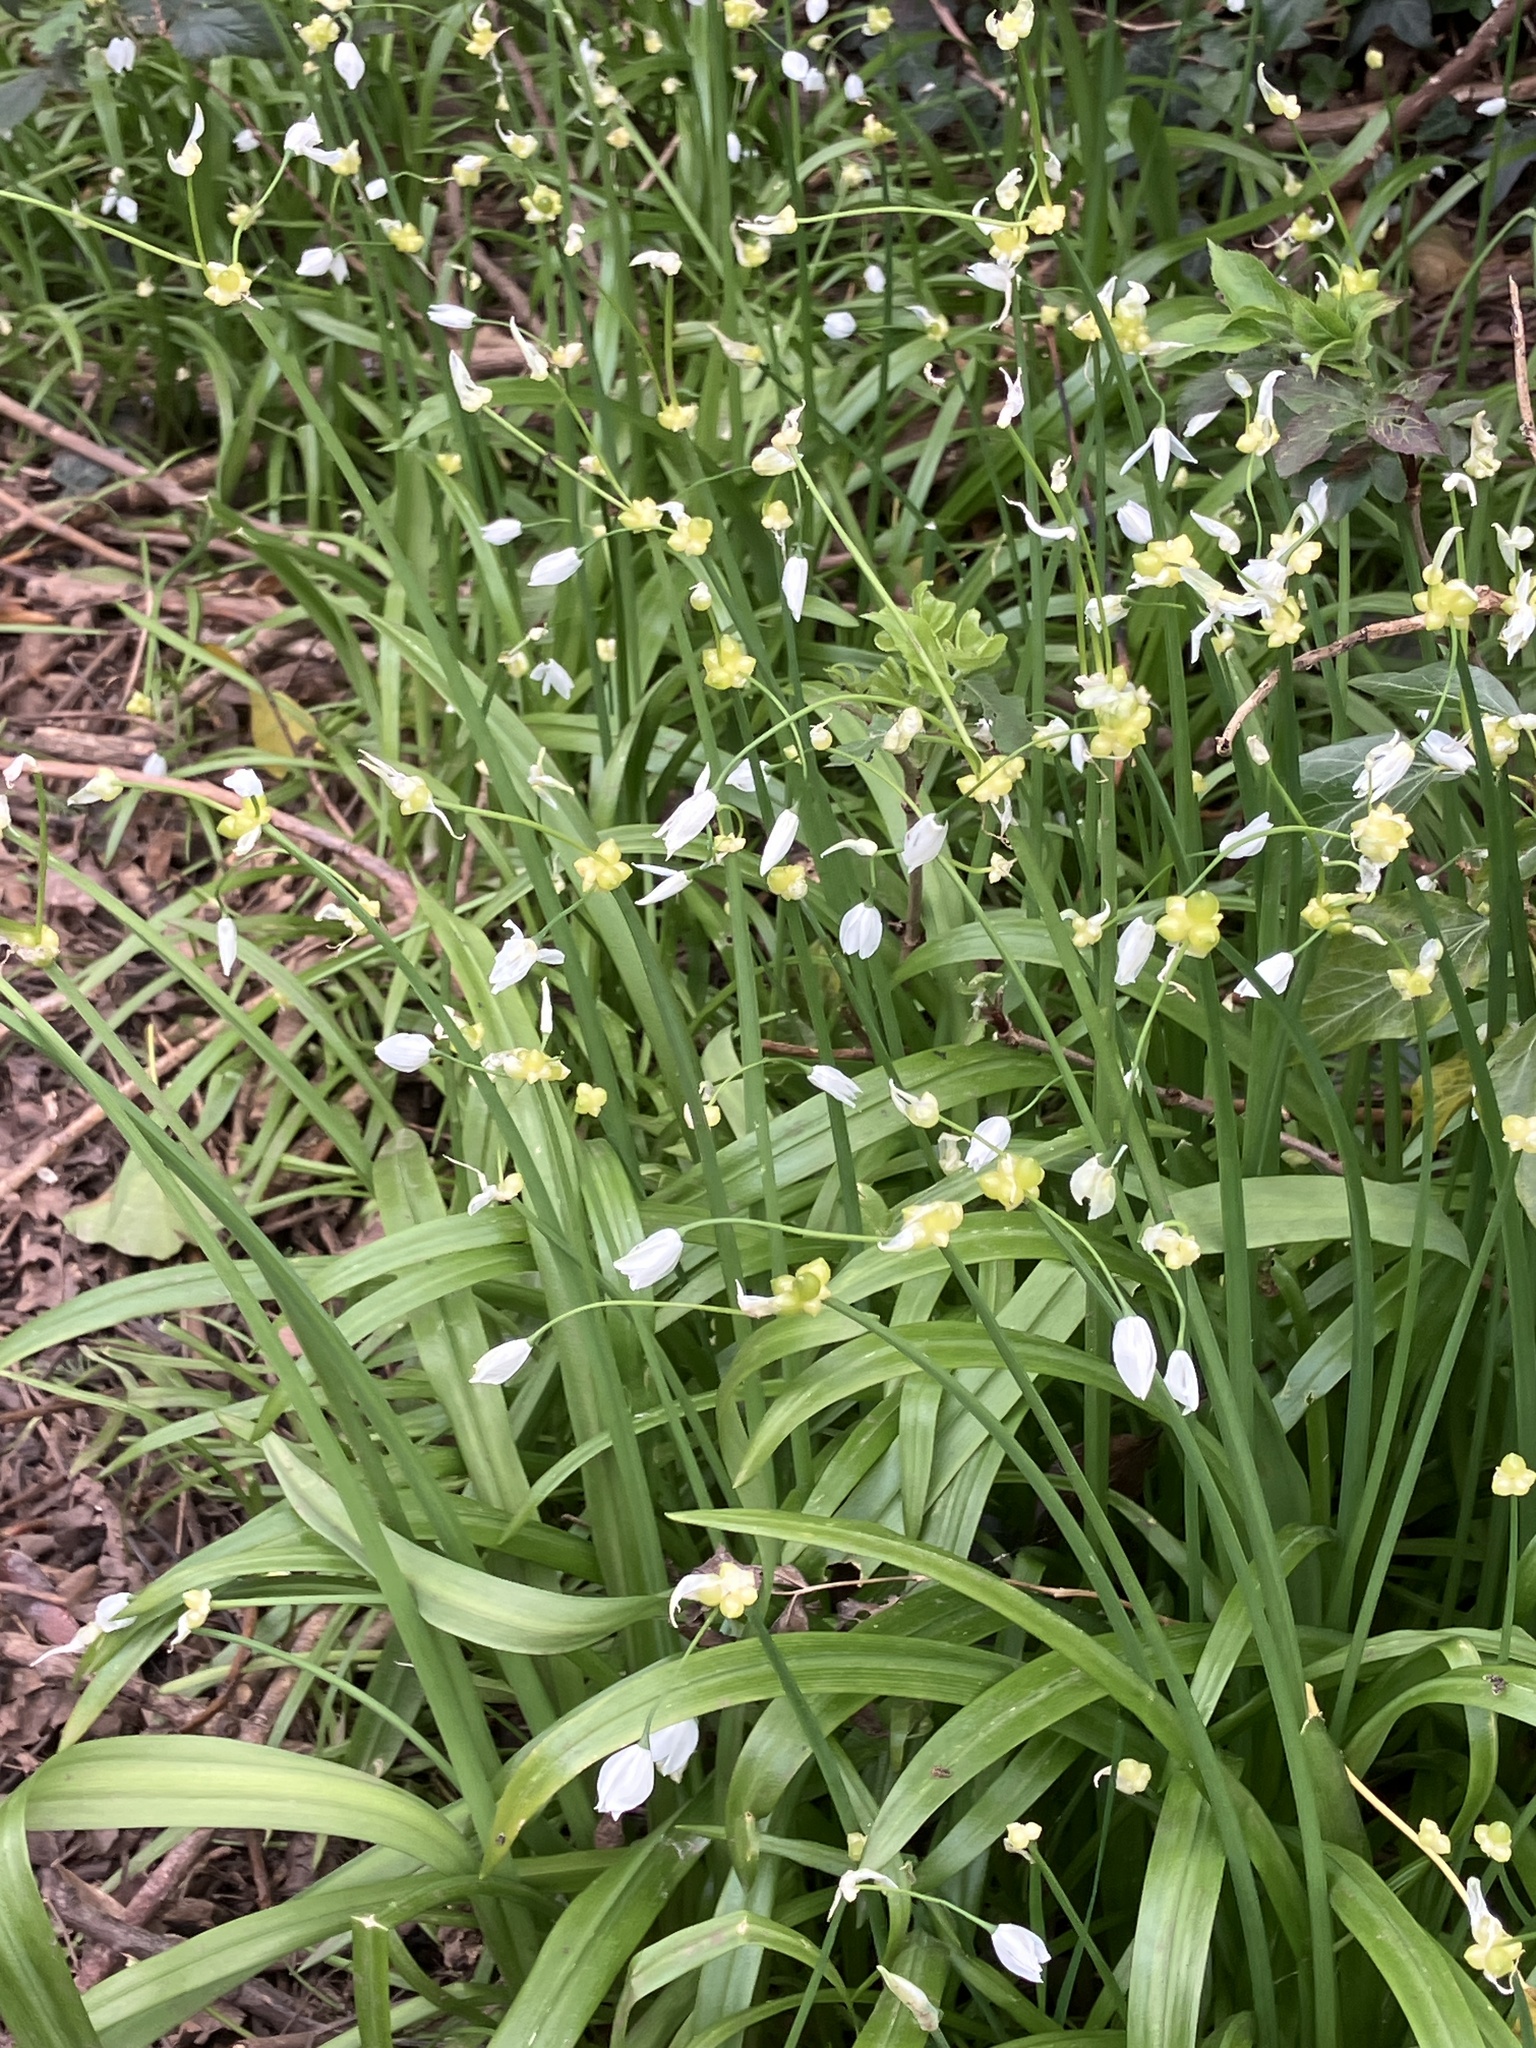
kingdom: Plantae
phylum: Tracheophyta
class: Liliopsida
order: Asparagales
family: Amaryllidaceae
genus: Allium
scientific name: Allium paradoxum
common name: Few-flowered garlic
